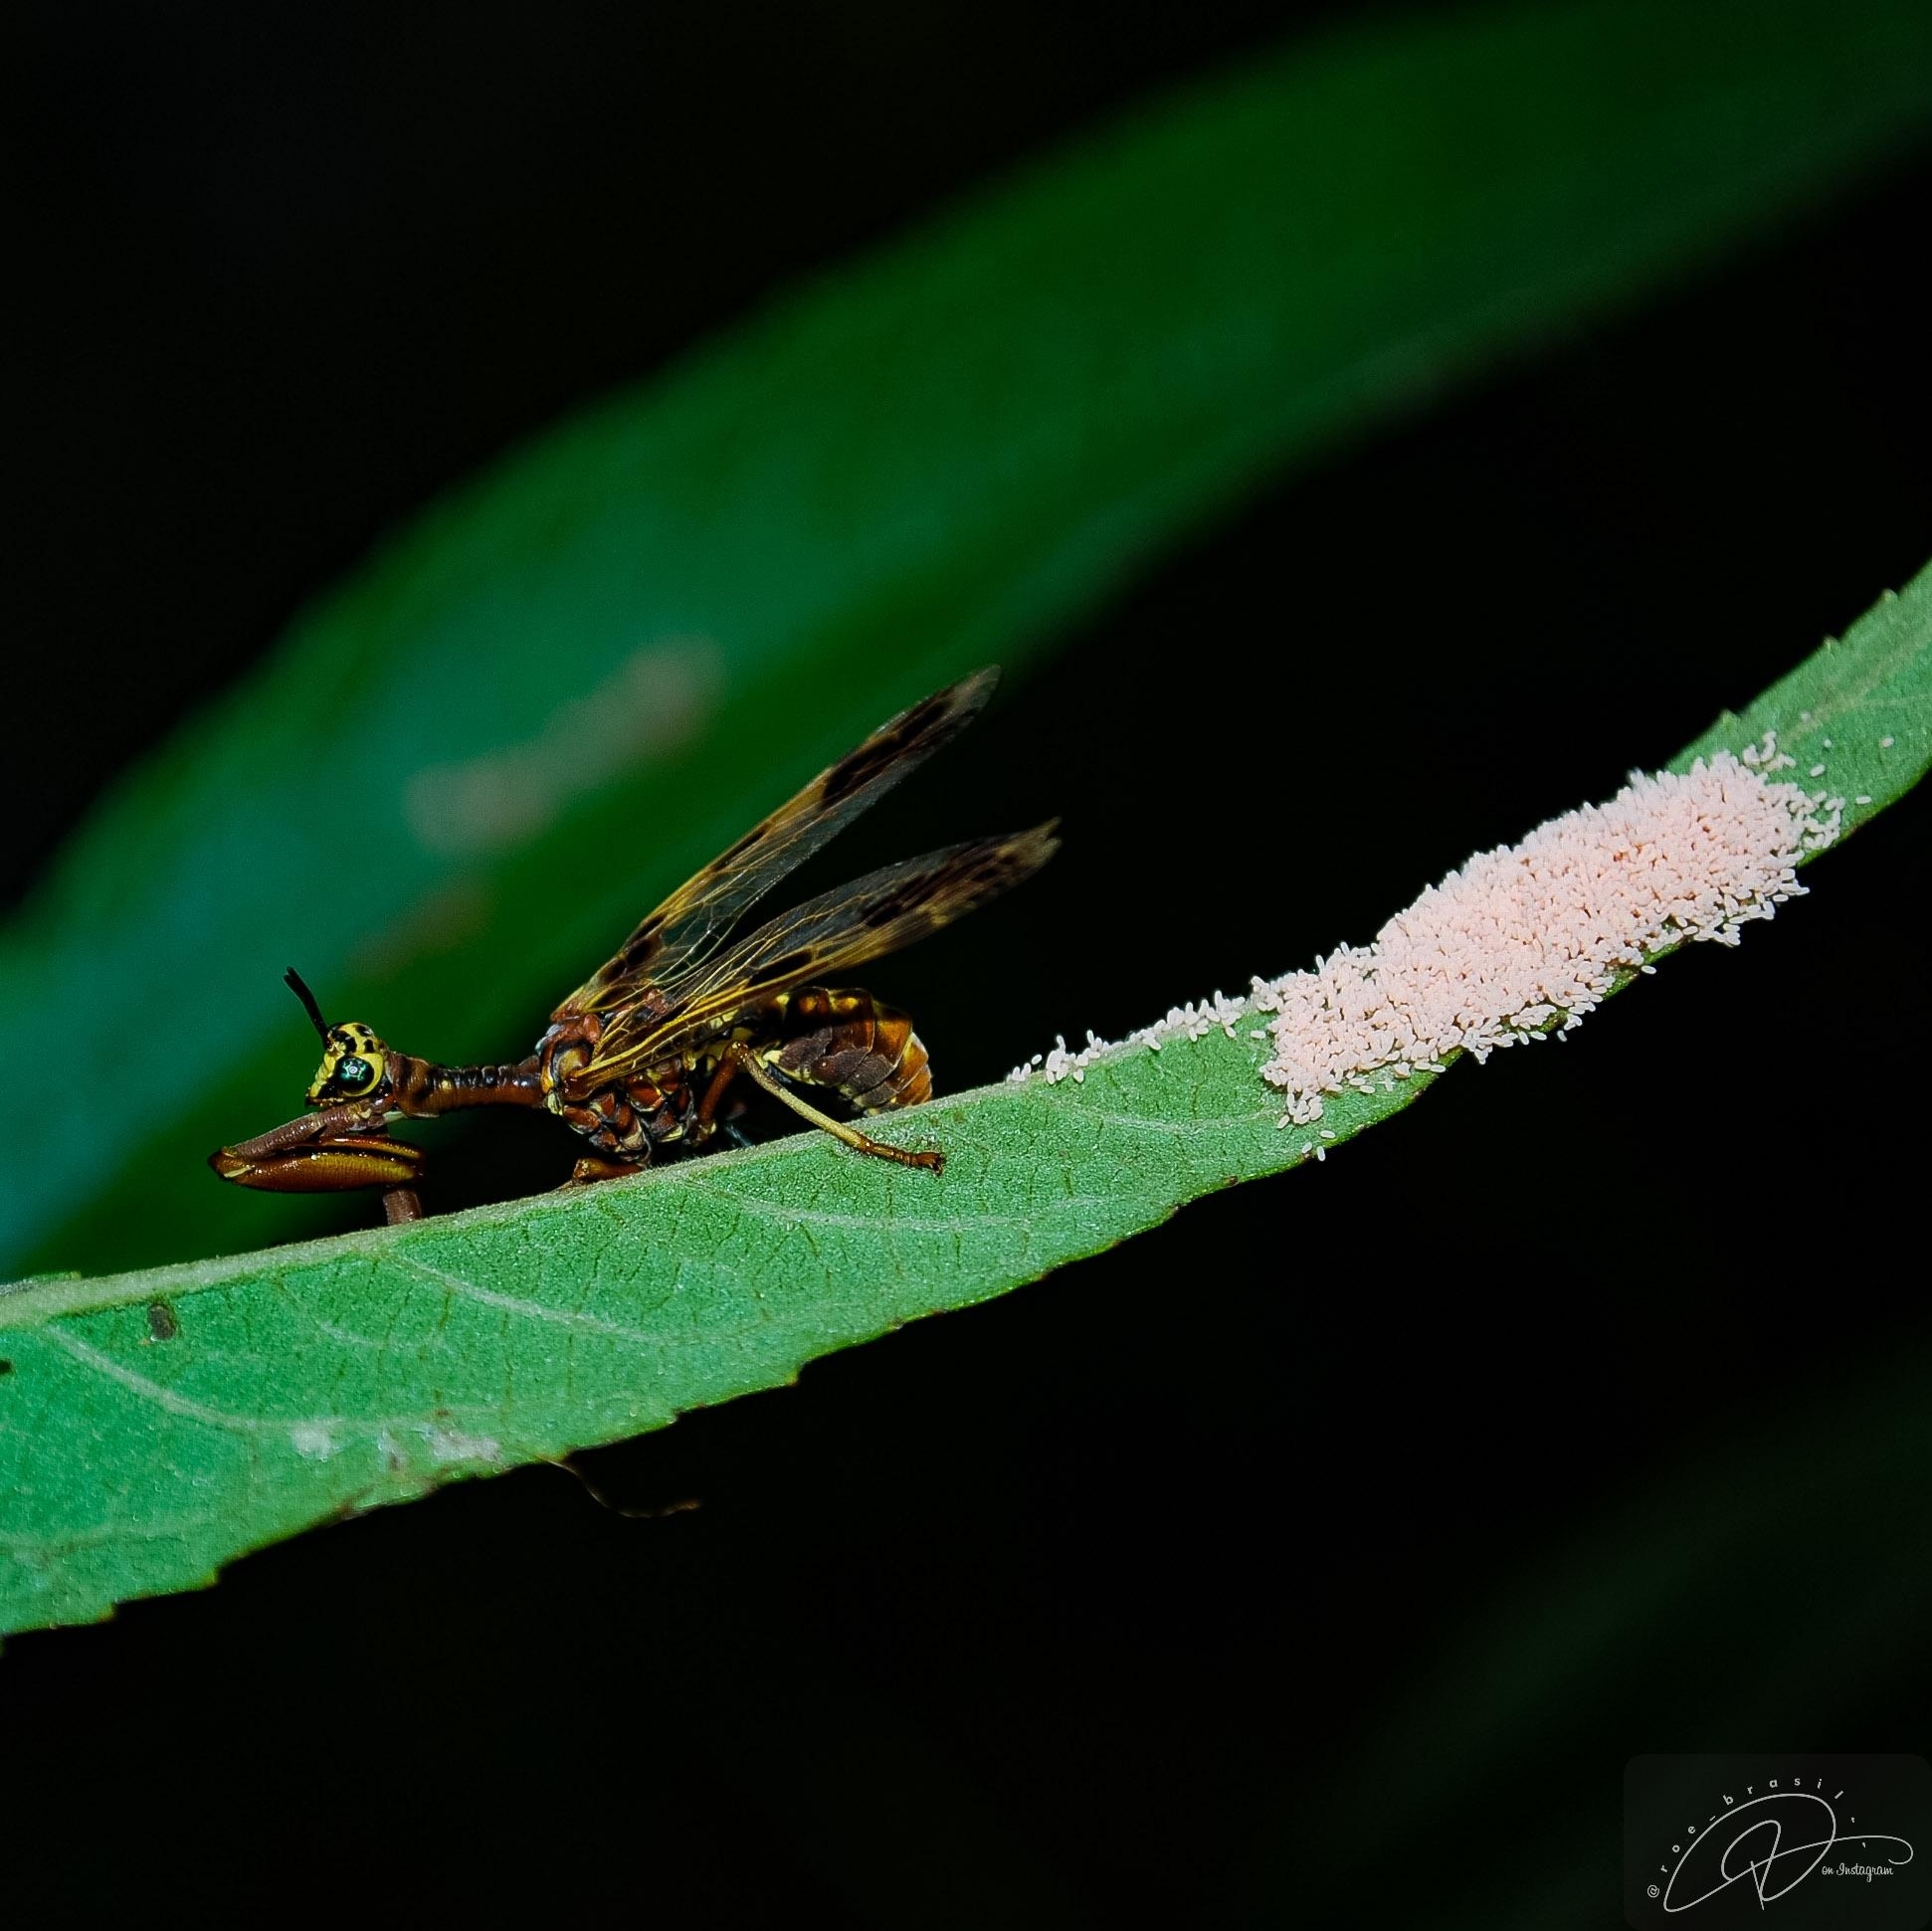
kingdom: Animalia
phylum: Arthropoda
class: Insecta
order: Neuroptera
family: Mantispidae
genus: Paramantispa
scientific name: Paramantispa ambusta
